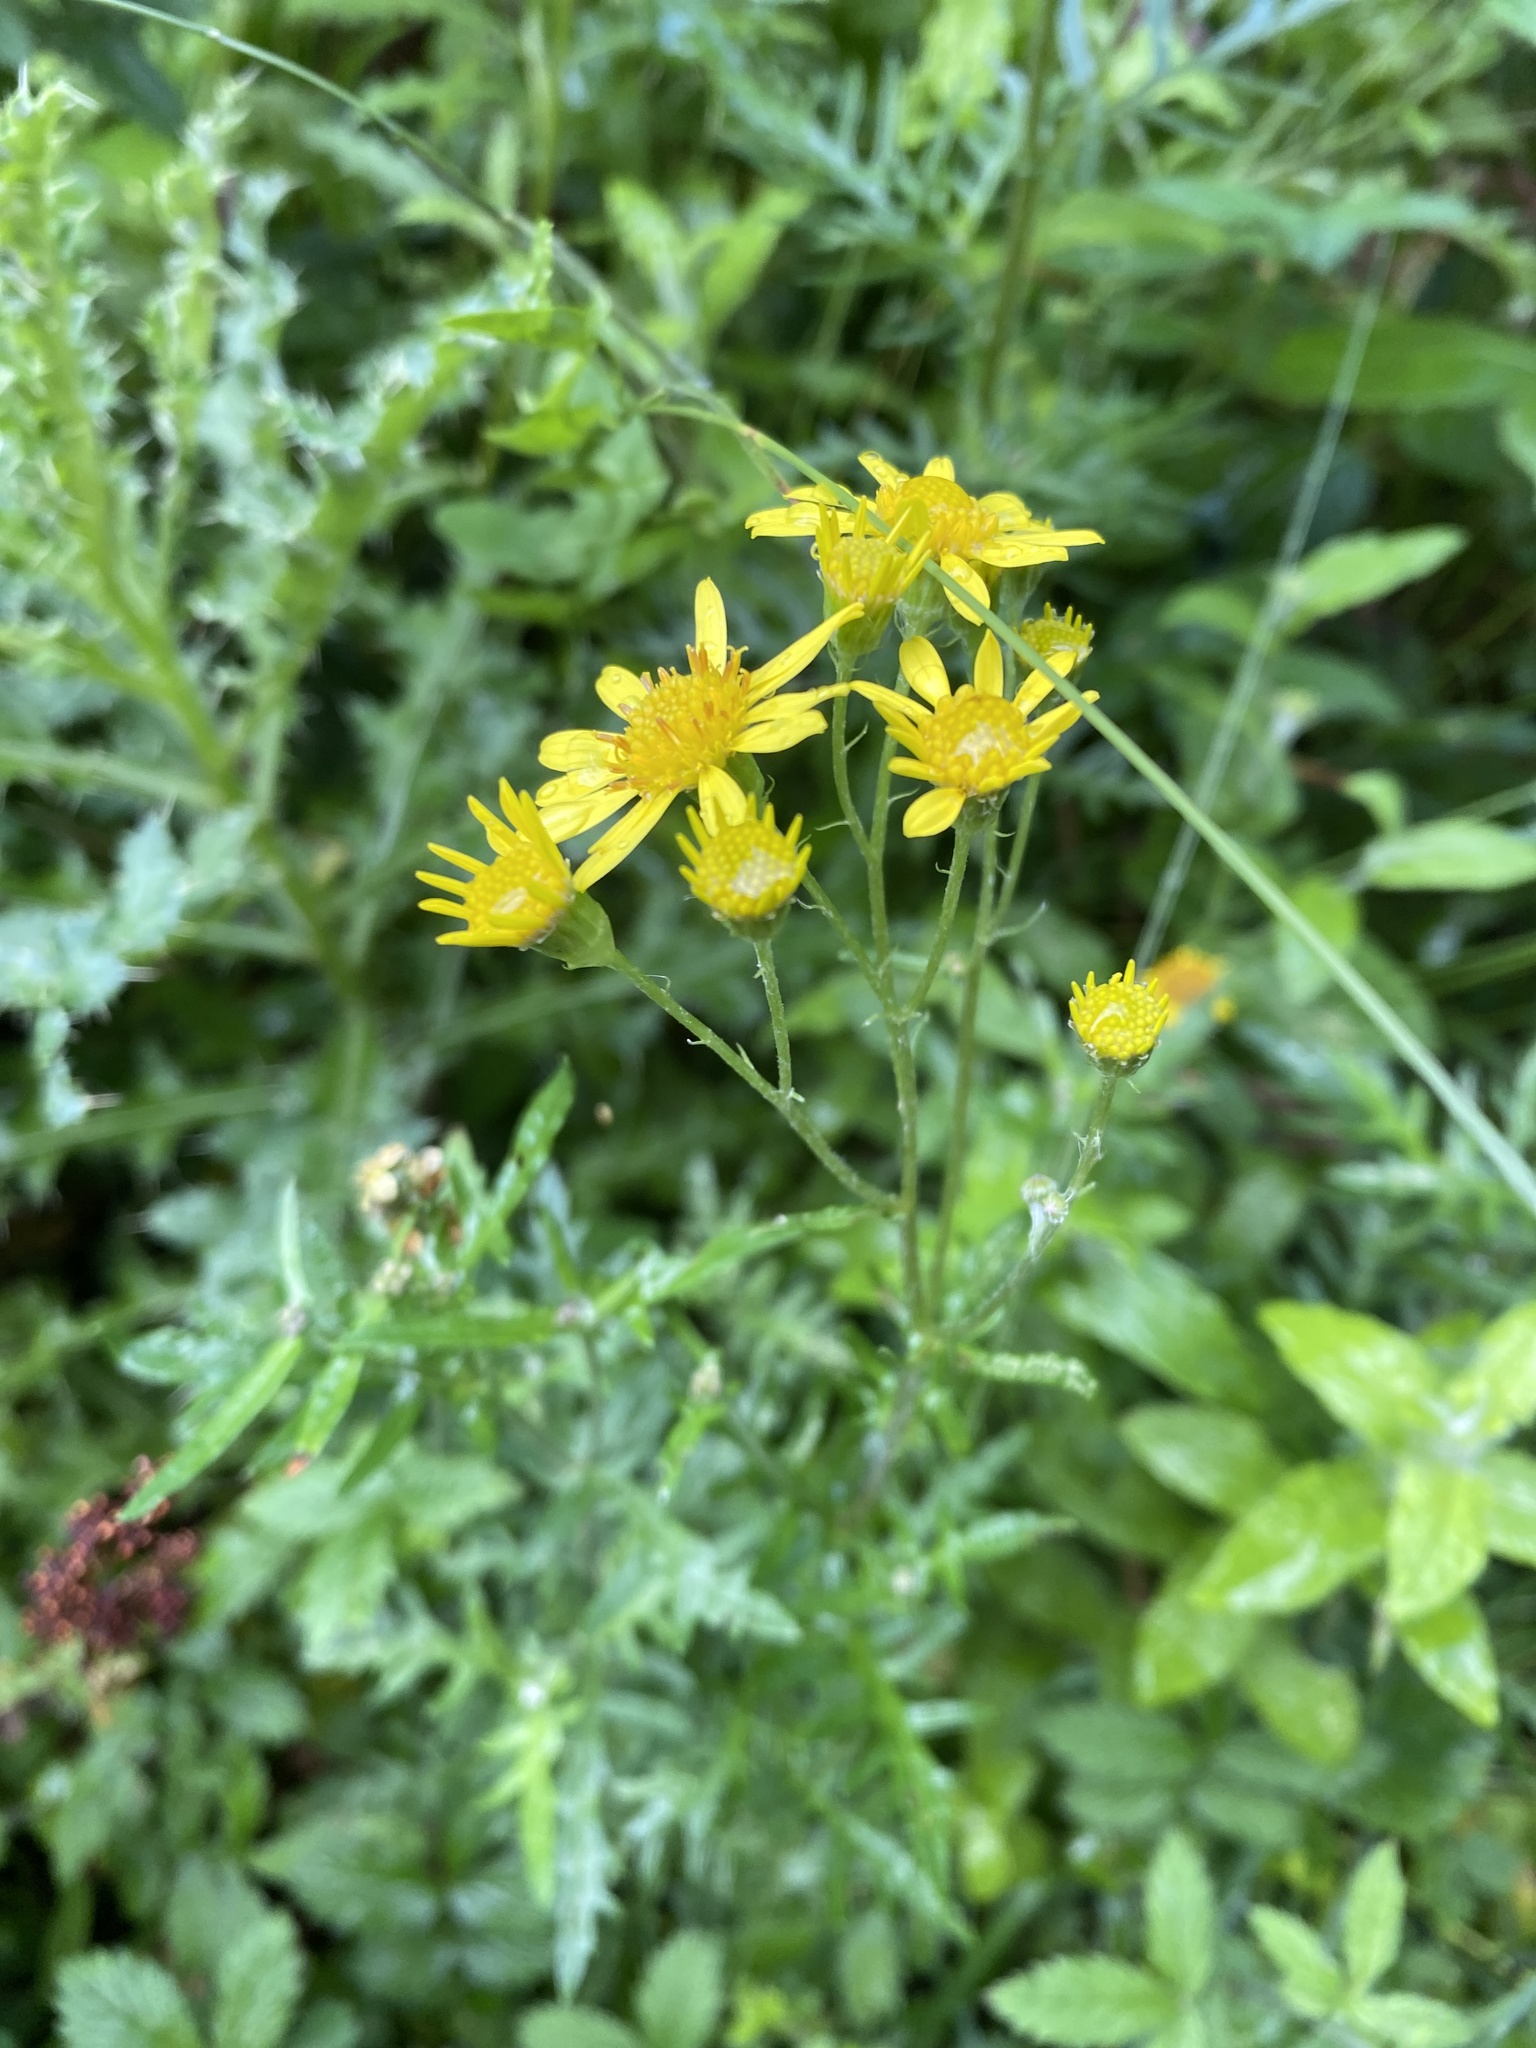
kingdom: Plantae
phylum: Tracheophyta
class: Magnoliopsida
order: Asterales
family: Asteraceae
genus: Jacobaea
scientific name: Jacobaea erucifolia
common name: Hoary ragwort
